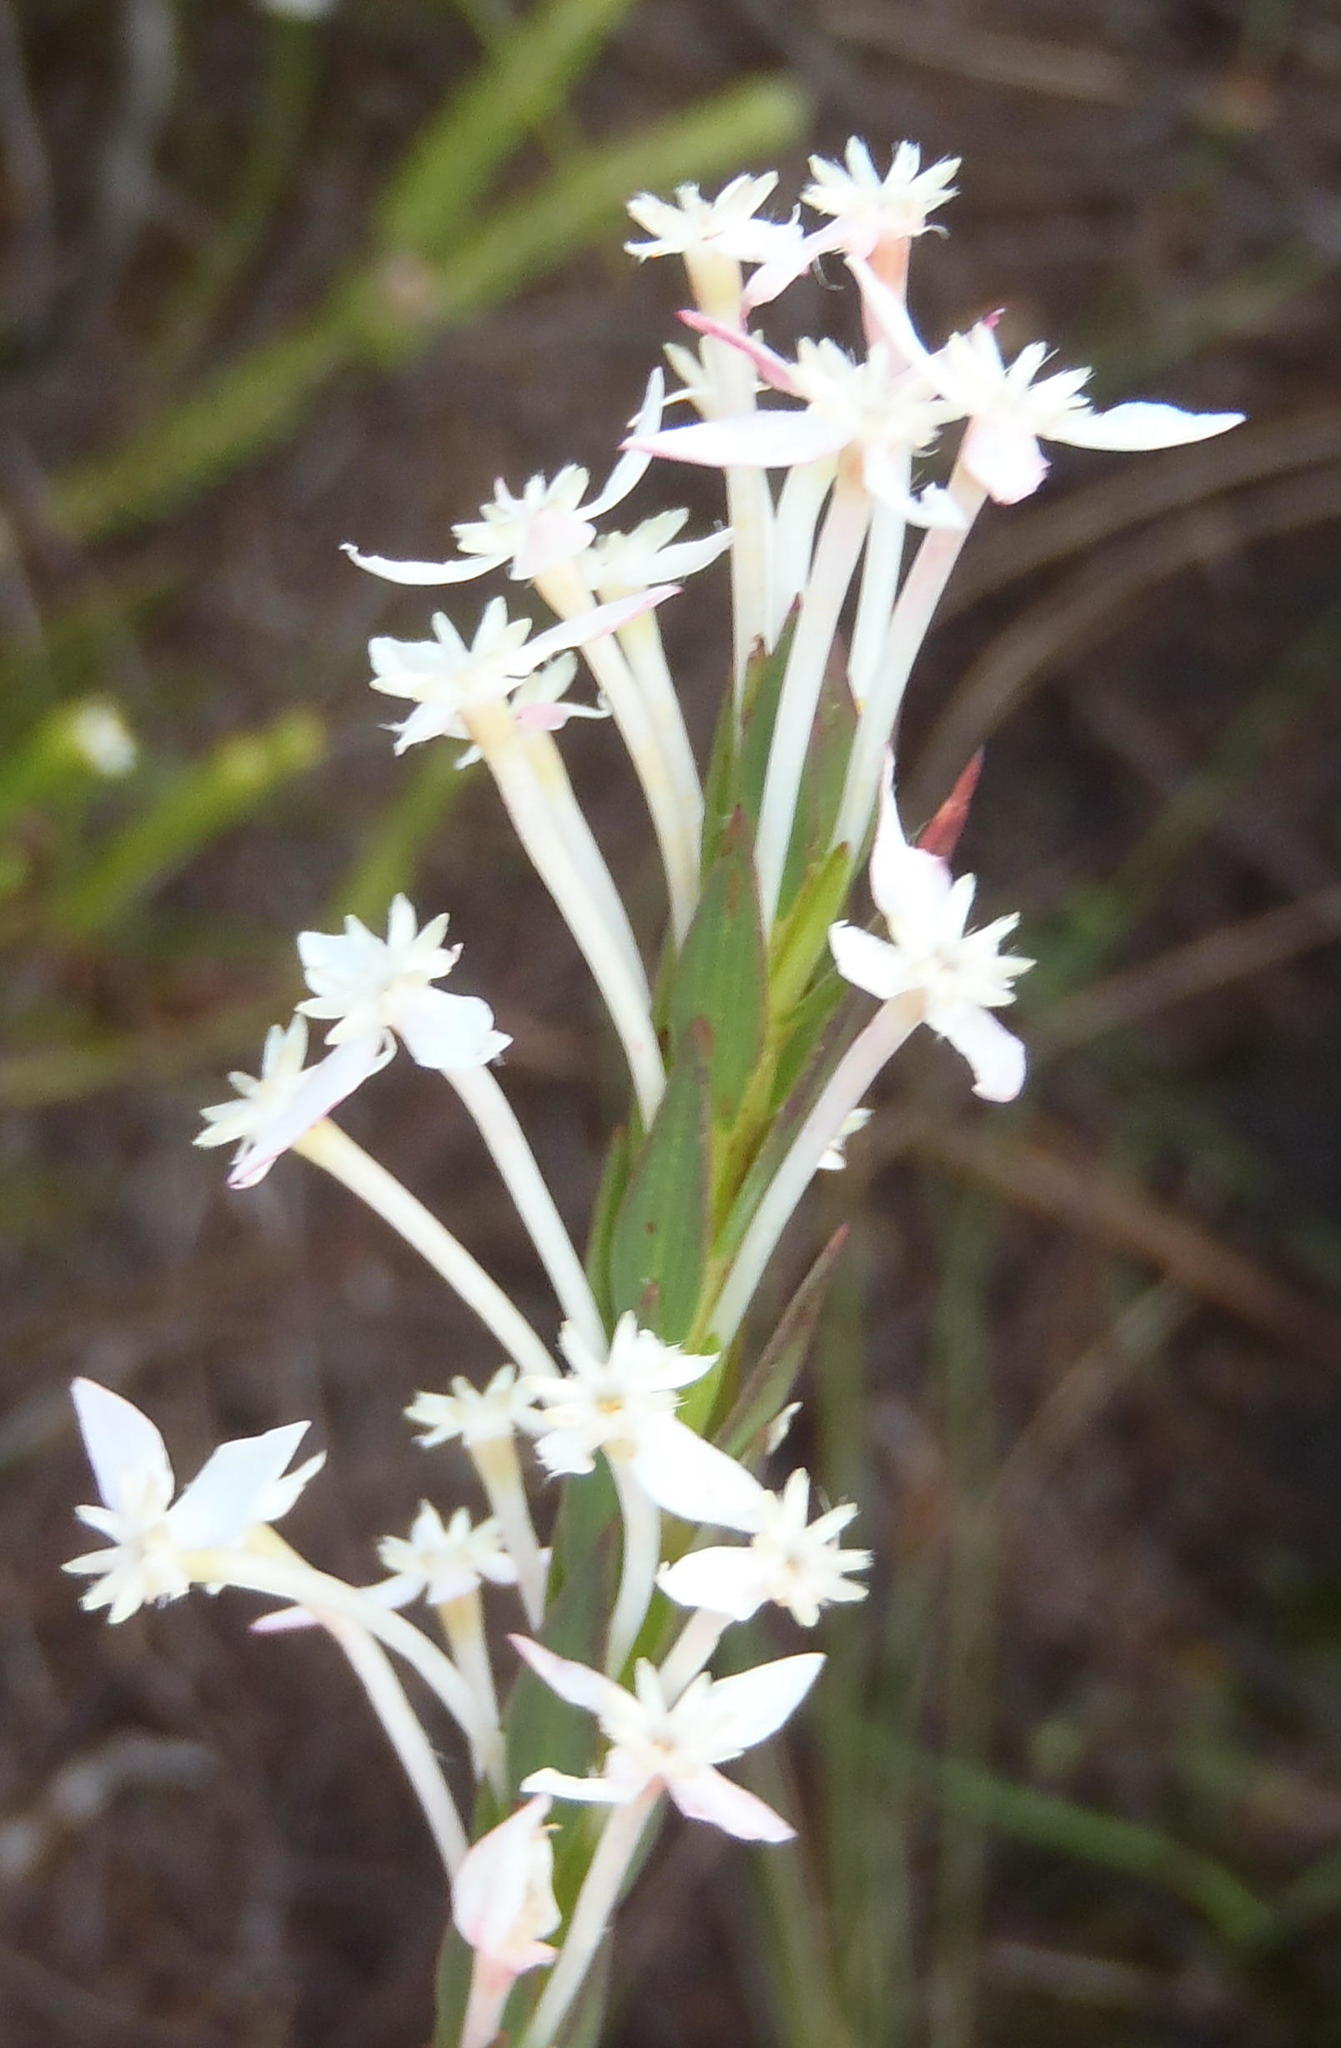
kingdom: Plantae
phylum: Tracheophyta
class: Magnoliopsida
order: Malvales
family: Thymelaeaceae
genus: Struthiola
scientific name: Struthiola myrsinites
